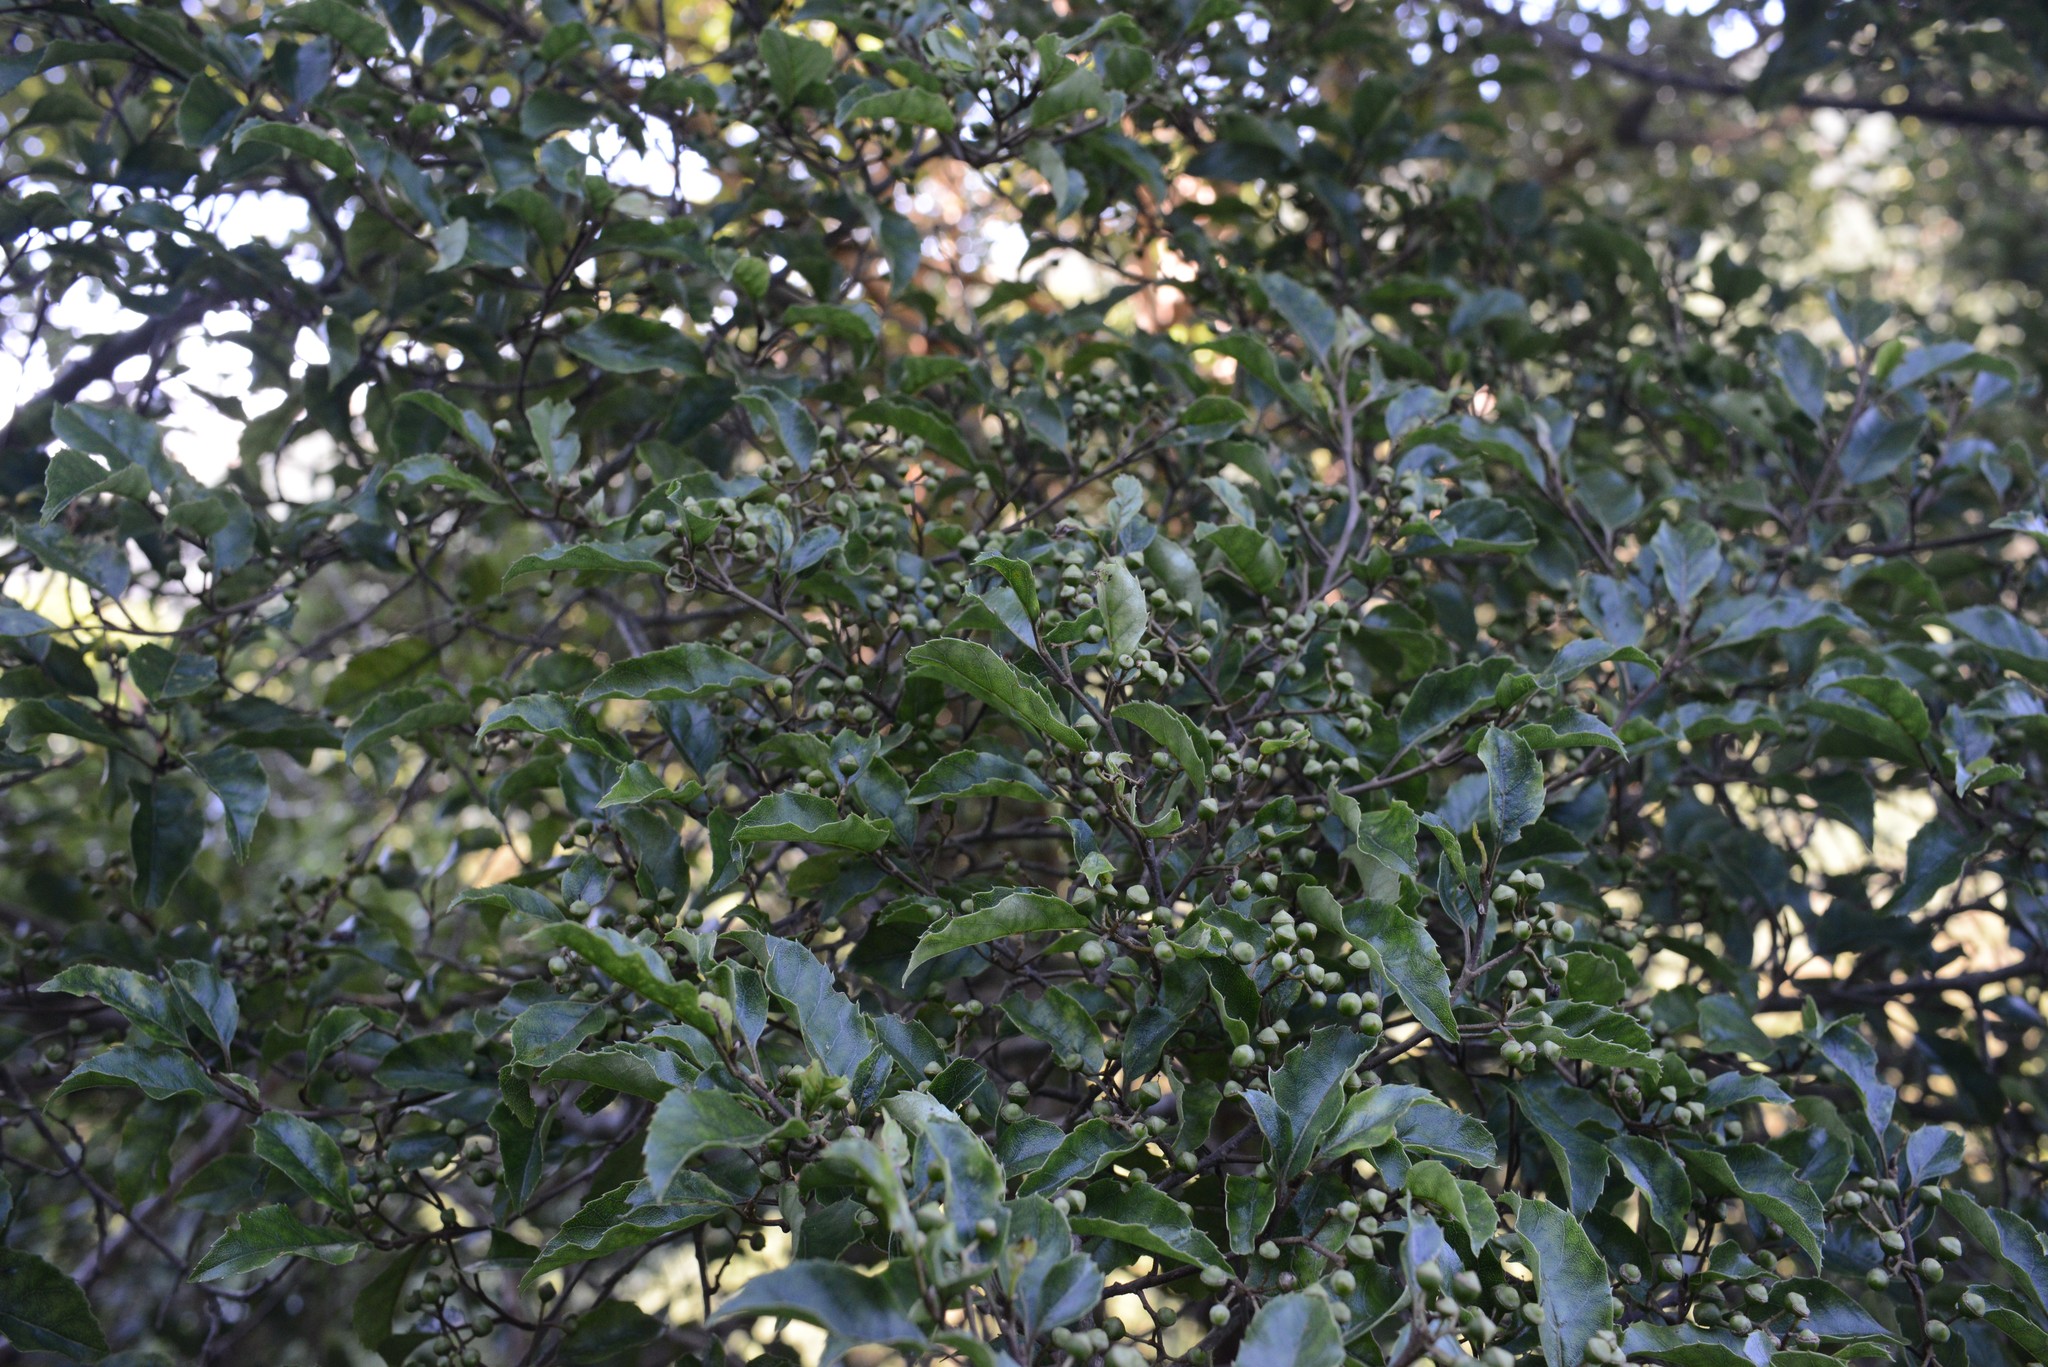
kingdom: Plantae
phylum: Tracheophyta
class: Magnoliopsida
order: Asterales
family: Rousseaceae
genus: Carpodetus
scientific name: Carpodetus serratus
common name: White mapau
